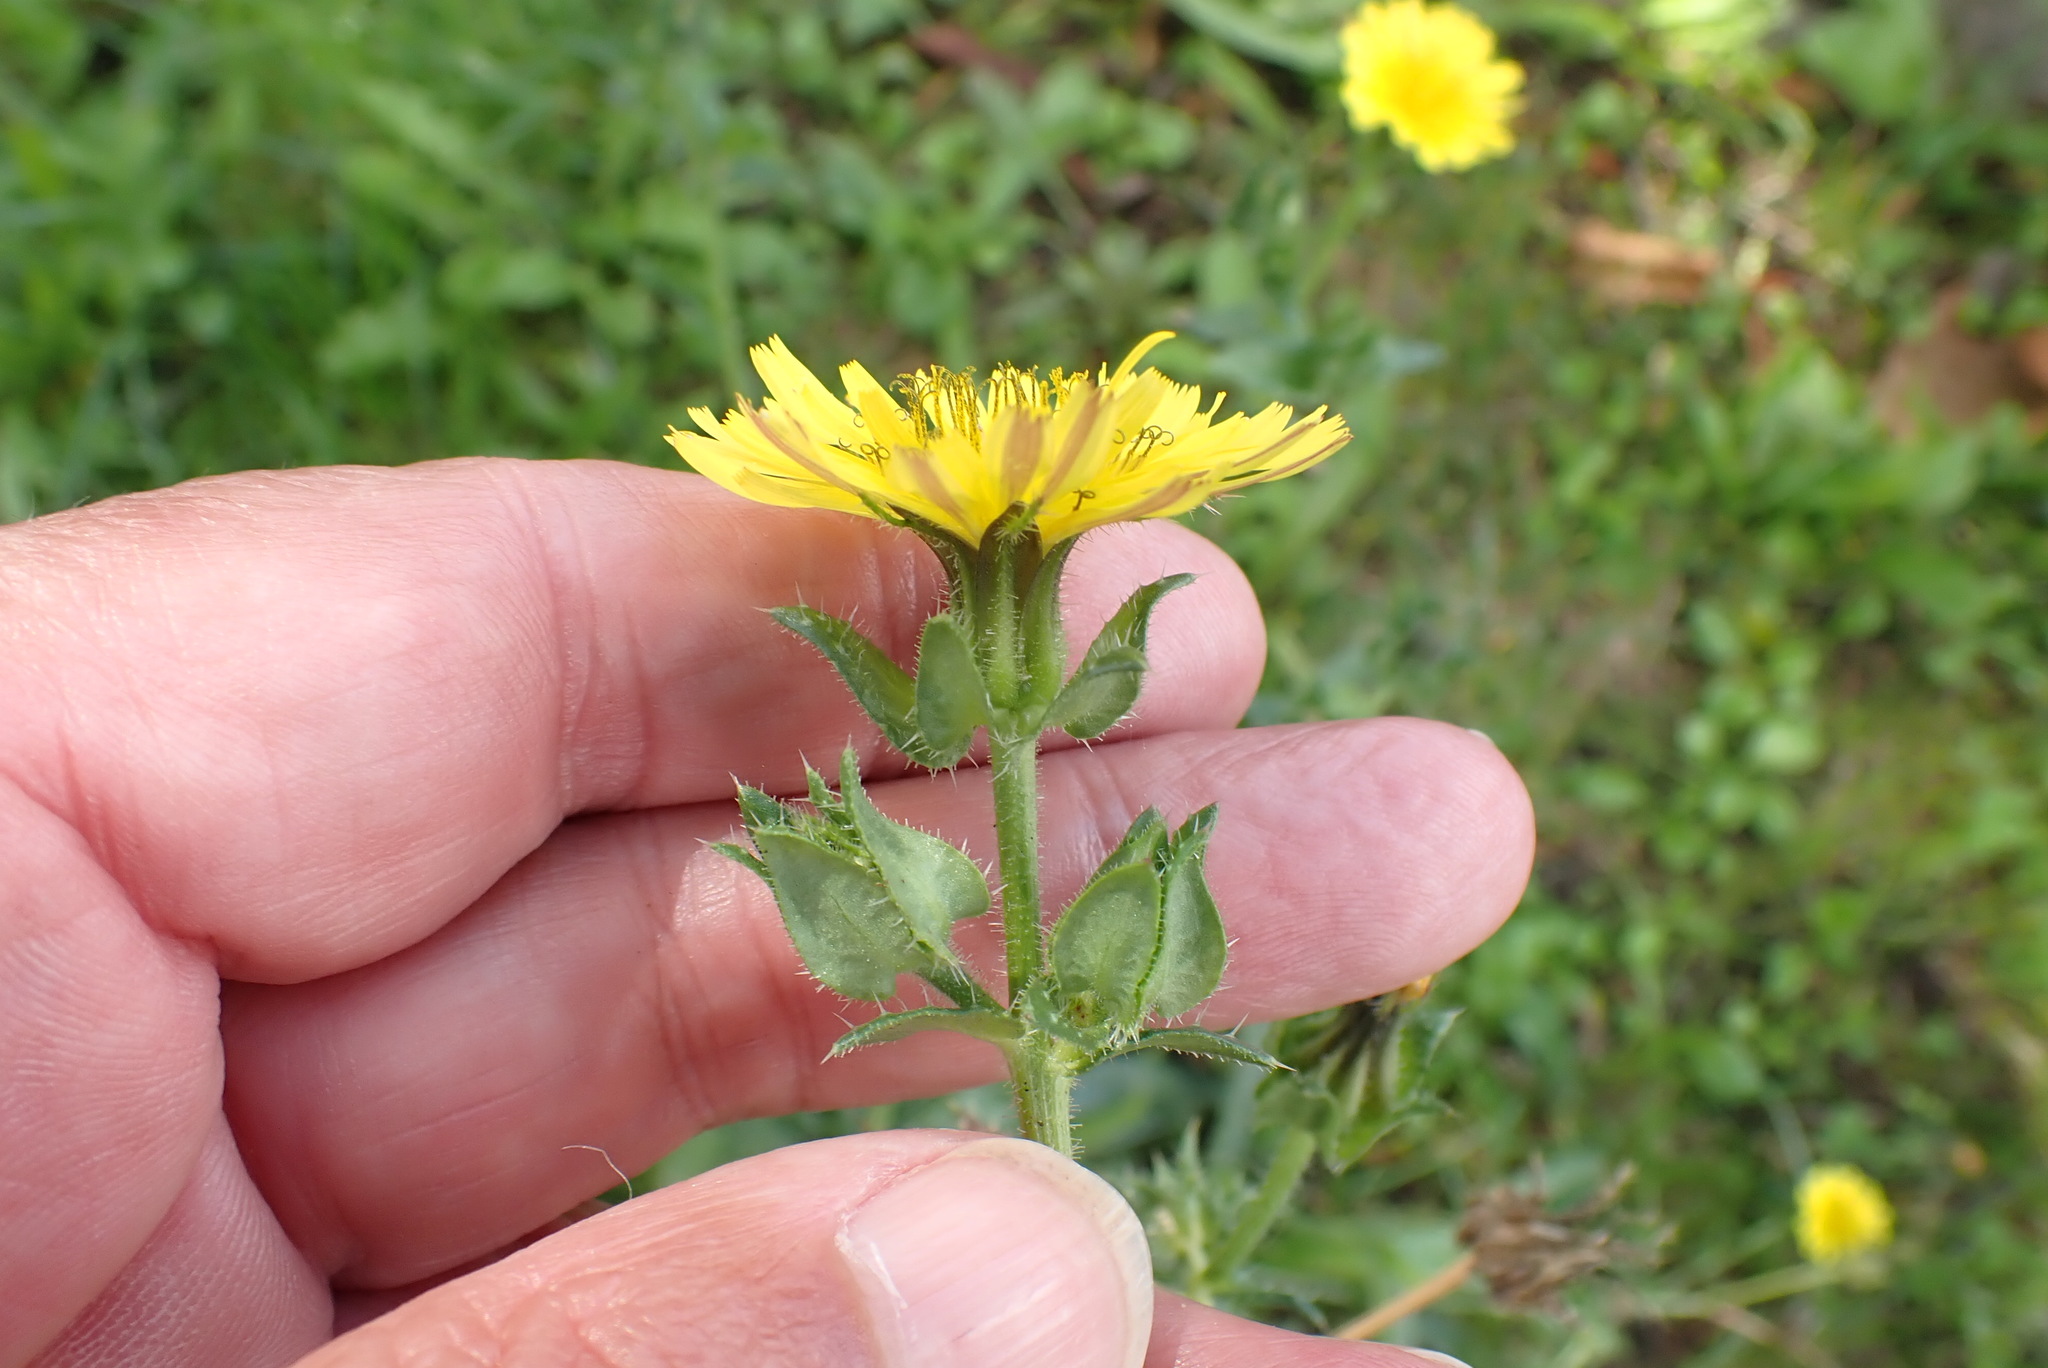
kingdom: Plantae
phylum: Tracheophyta
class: Magnoliopsida
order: Asterales
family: Asteraceae
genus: Helminthotheca
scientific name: Helminthotheca echioides
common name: Ox-tongue
